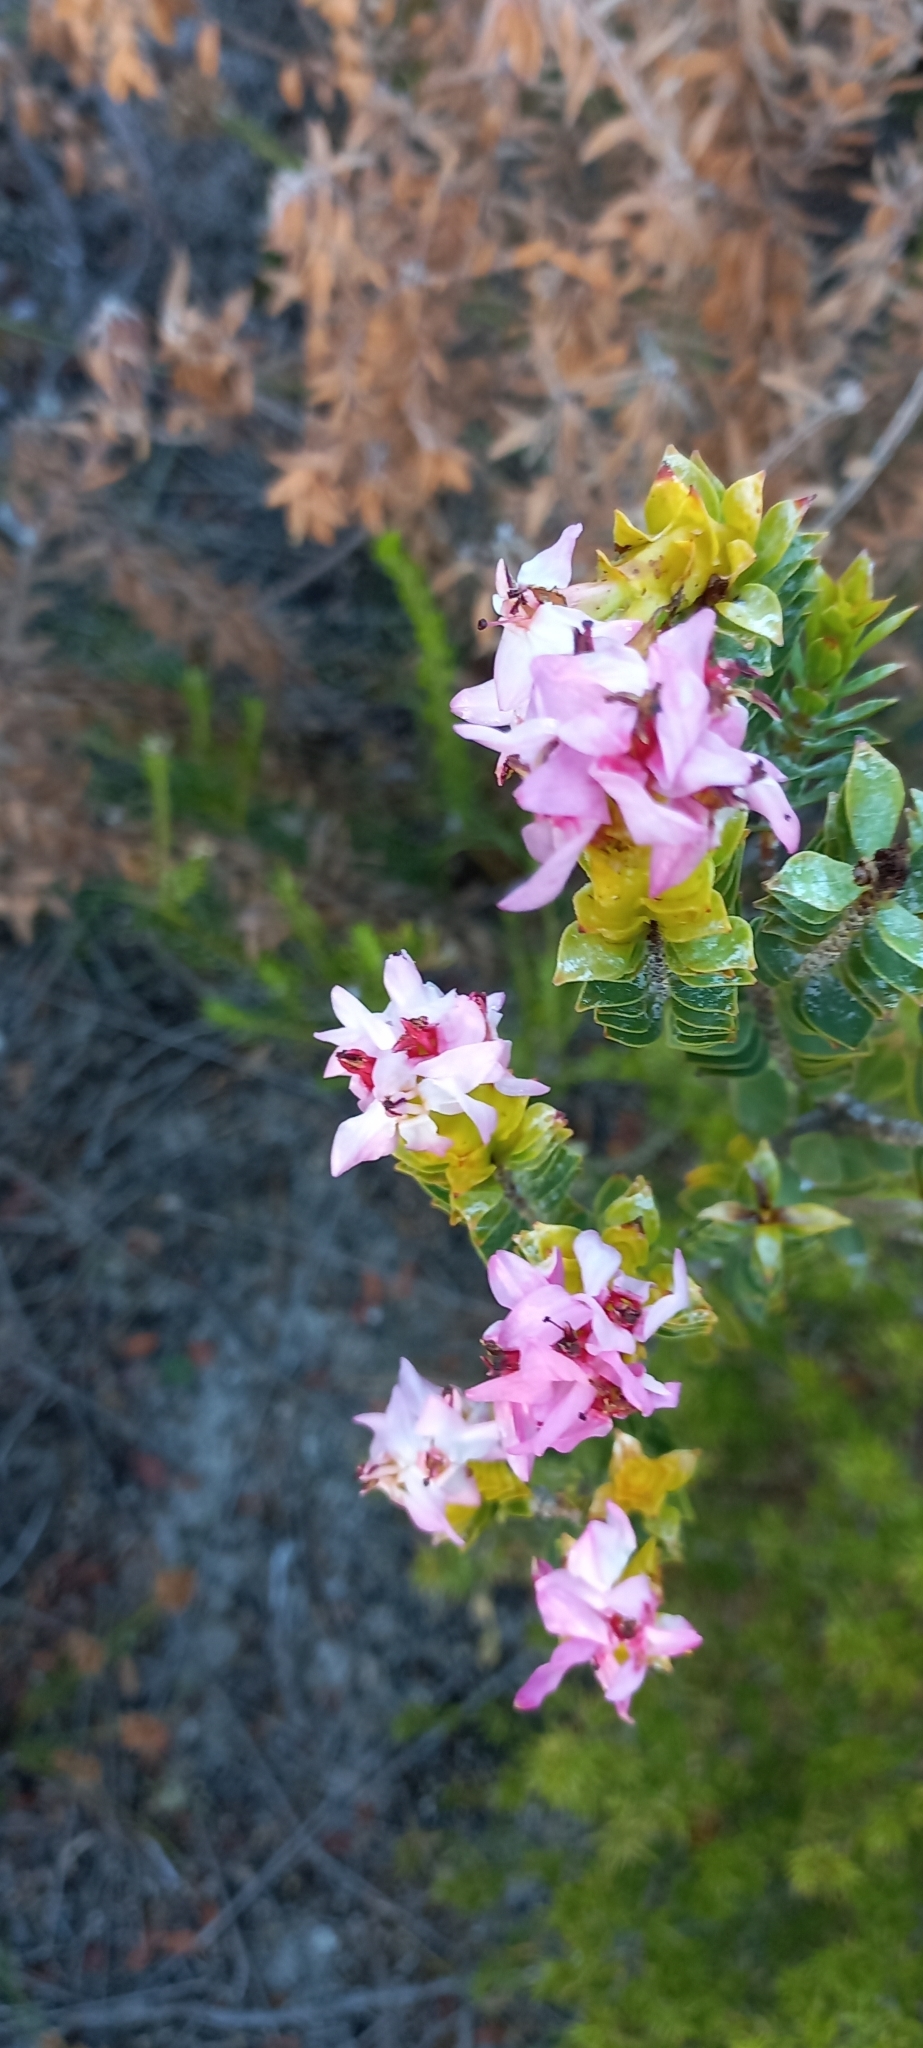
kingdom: Plantae
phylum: Tracheophyta
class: Magnoliopsida
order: Myrtales
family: Penaeaceae
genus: Saltera
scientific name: Saltera sarcocolla
